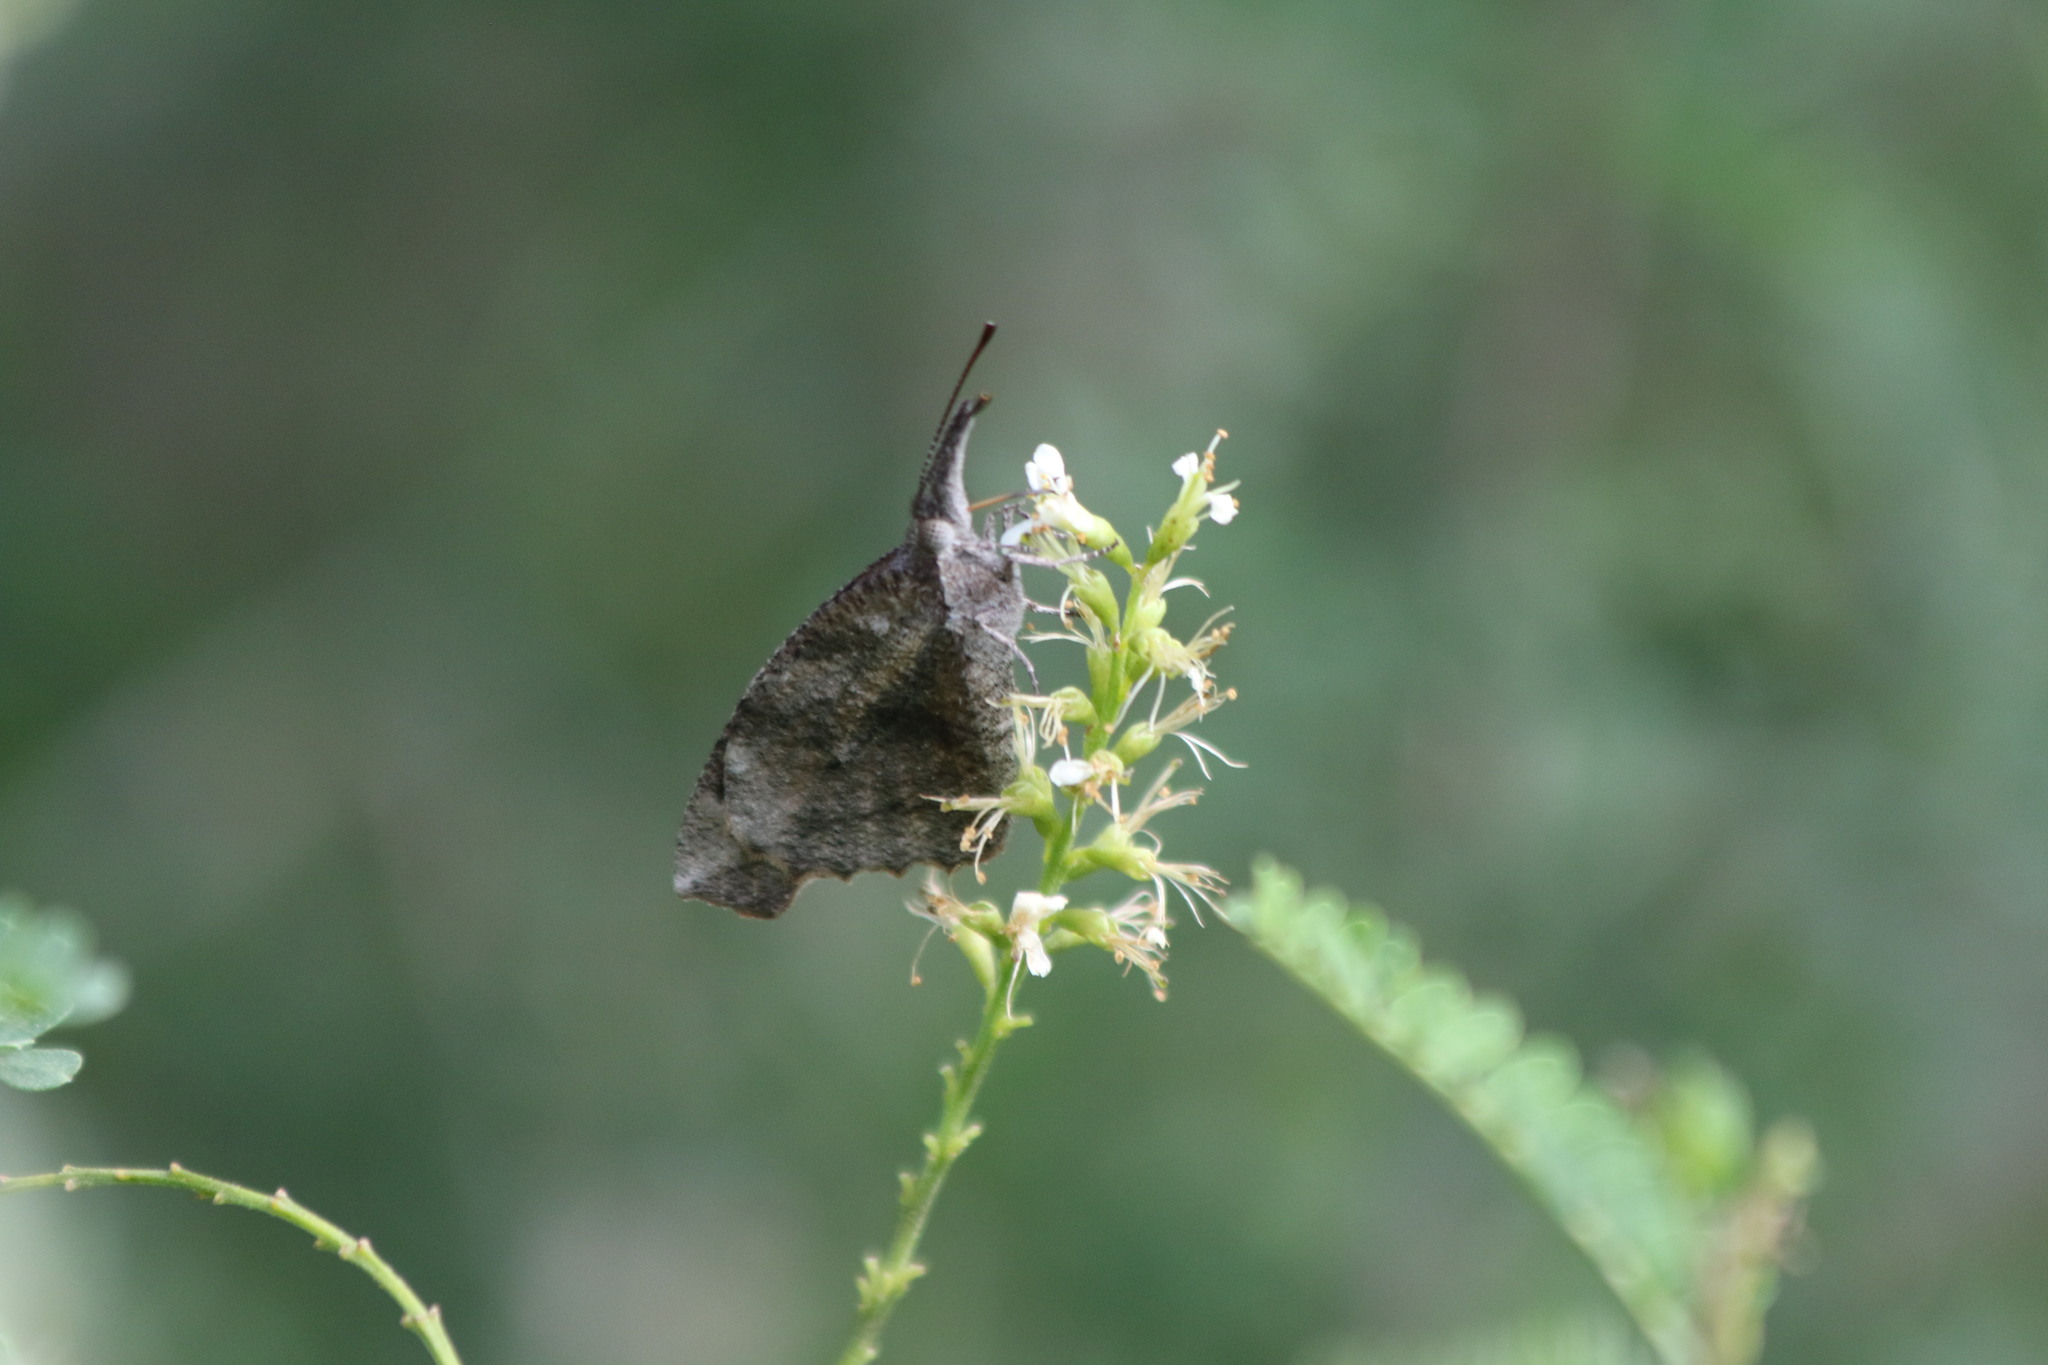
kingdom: Animalia
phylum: Arthropoda
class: Insecta
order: Lepidoptera
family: Nymphalidae
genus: Libytheana
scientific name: Libytheana carinenta
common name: American snout
